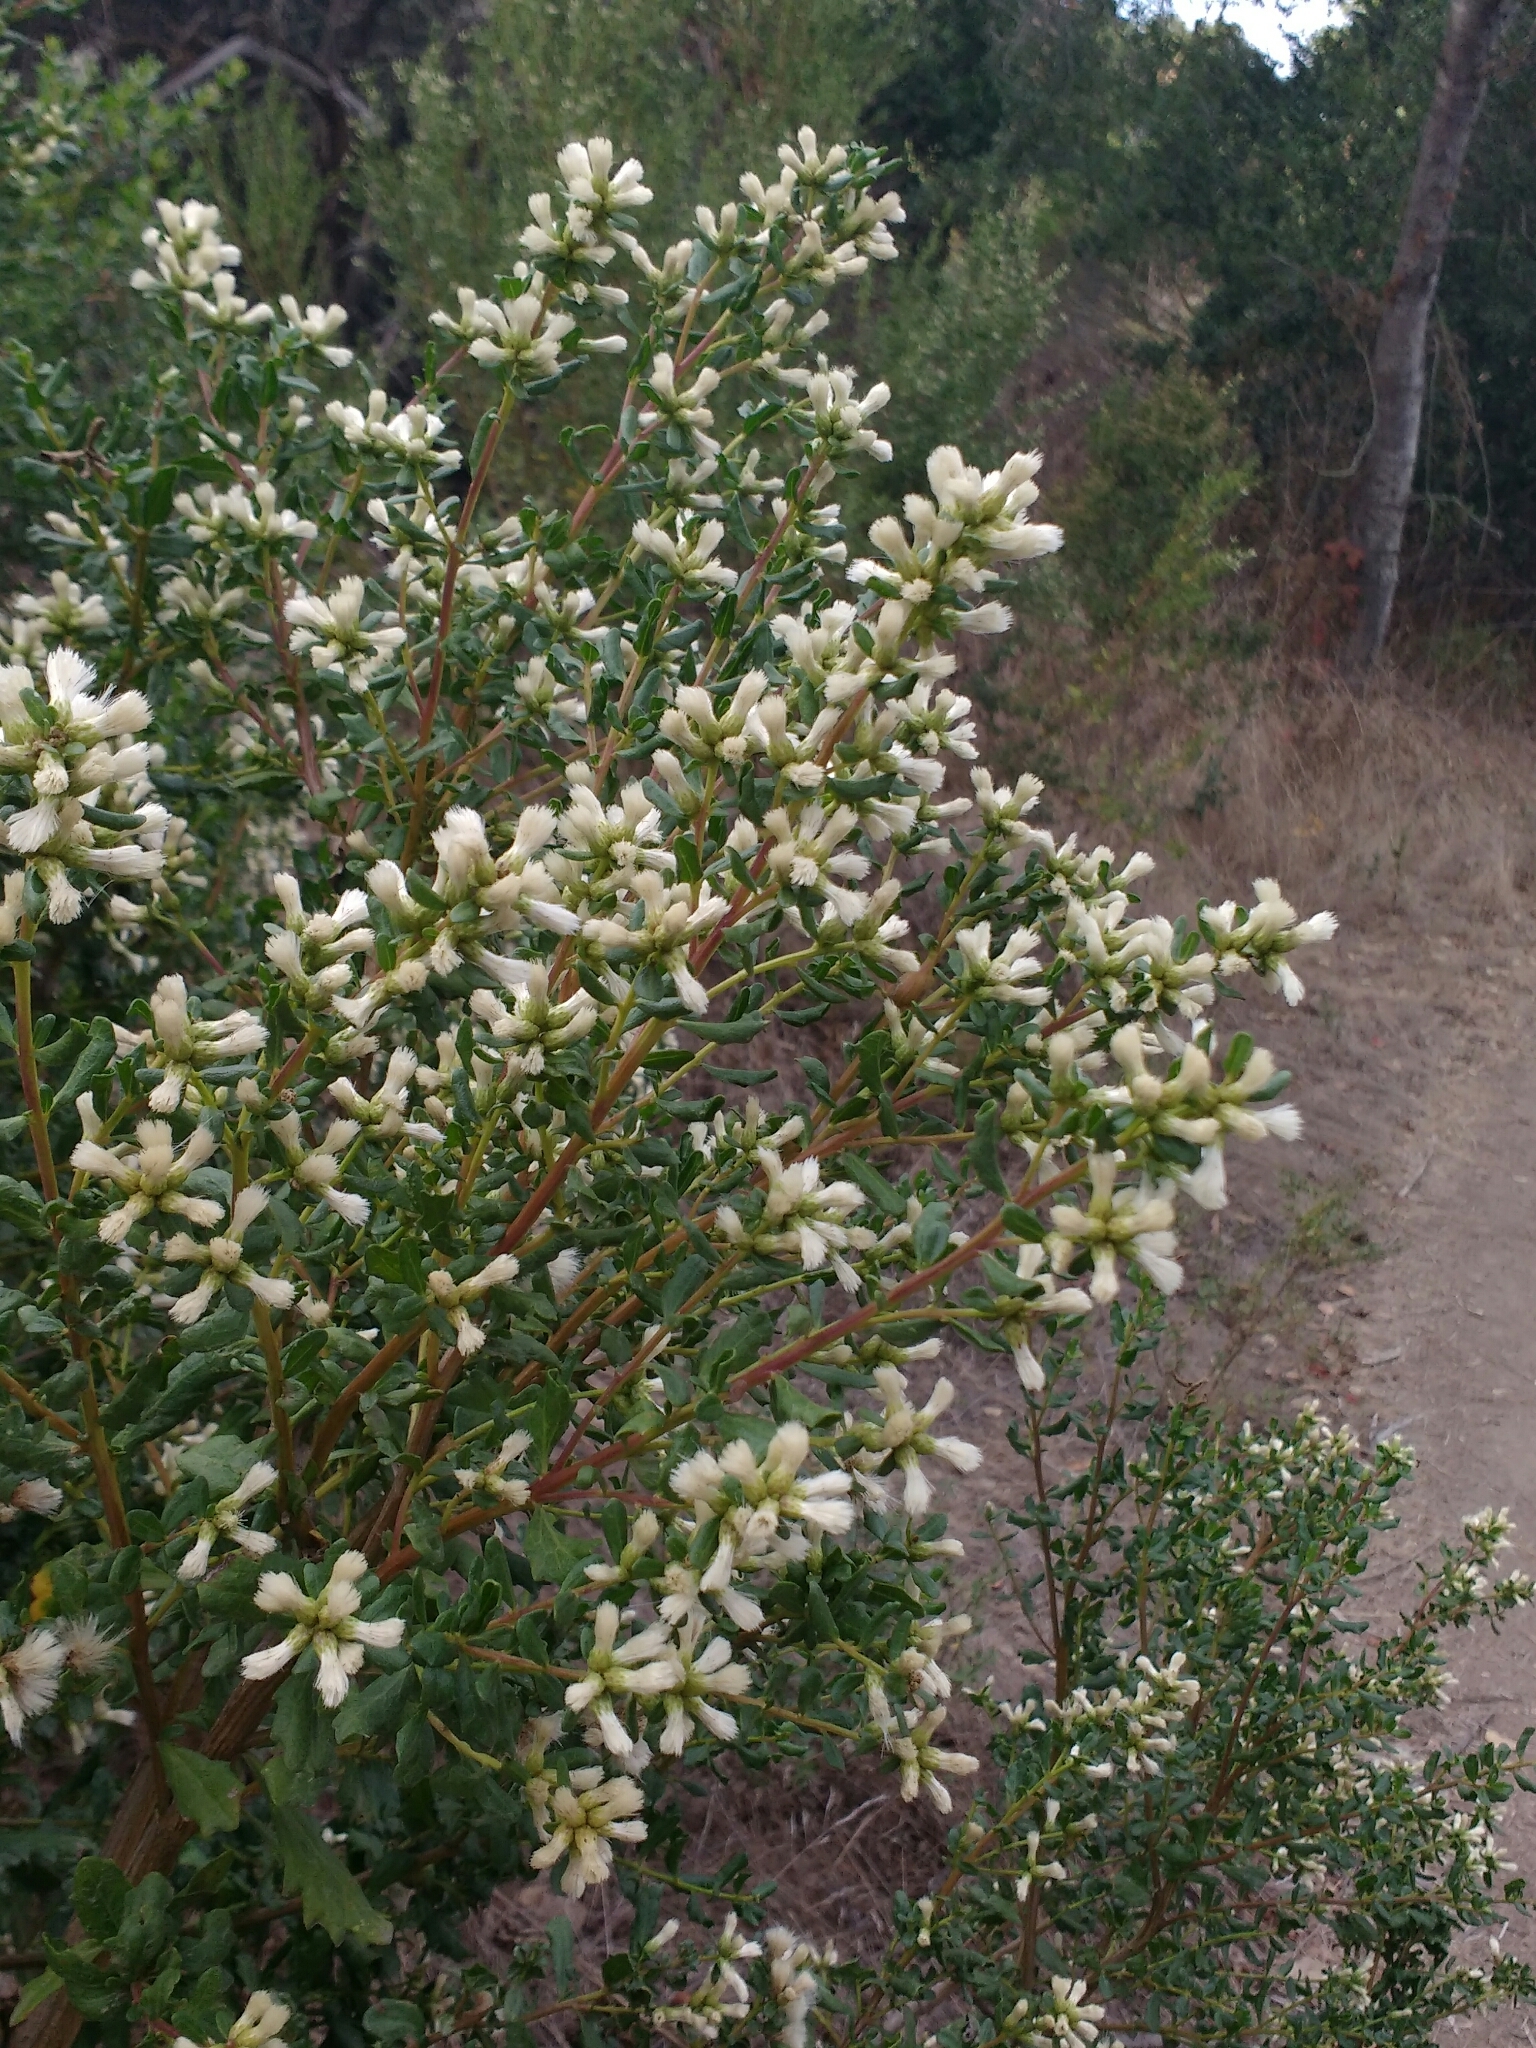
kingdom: Plantae
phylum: Tracheophyta
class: Magnoliopsida
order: Asterales
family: Asteraceae
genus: Baccharis
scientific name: Baccharis pilularis
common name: Coyotebrush
